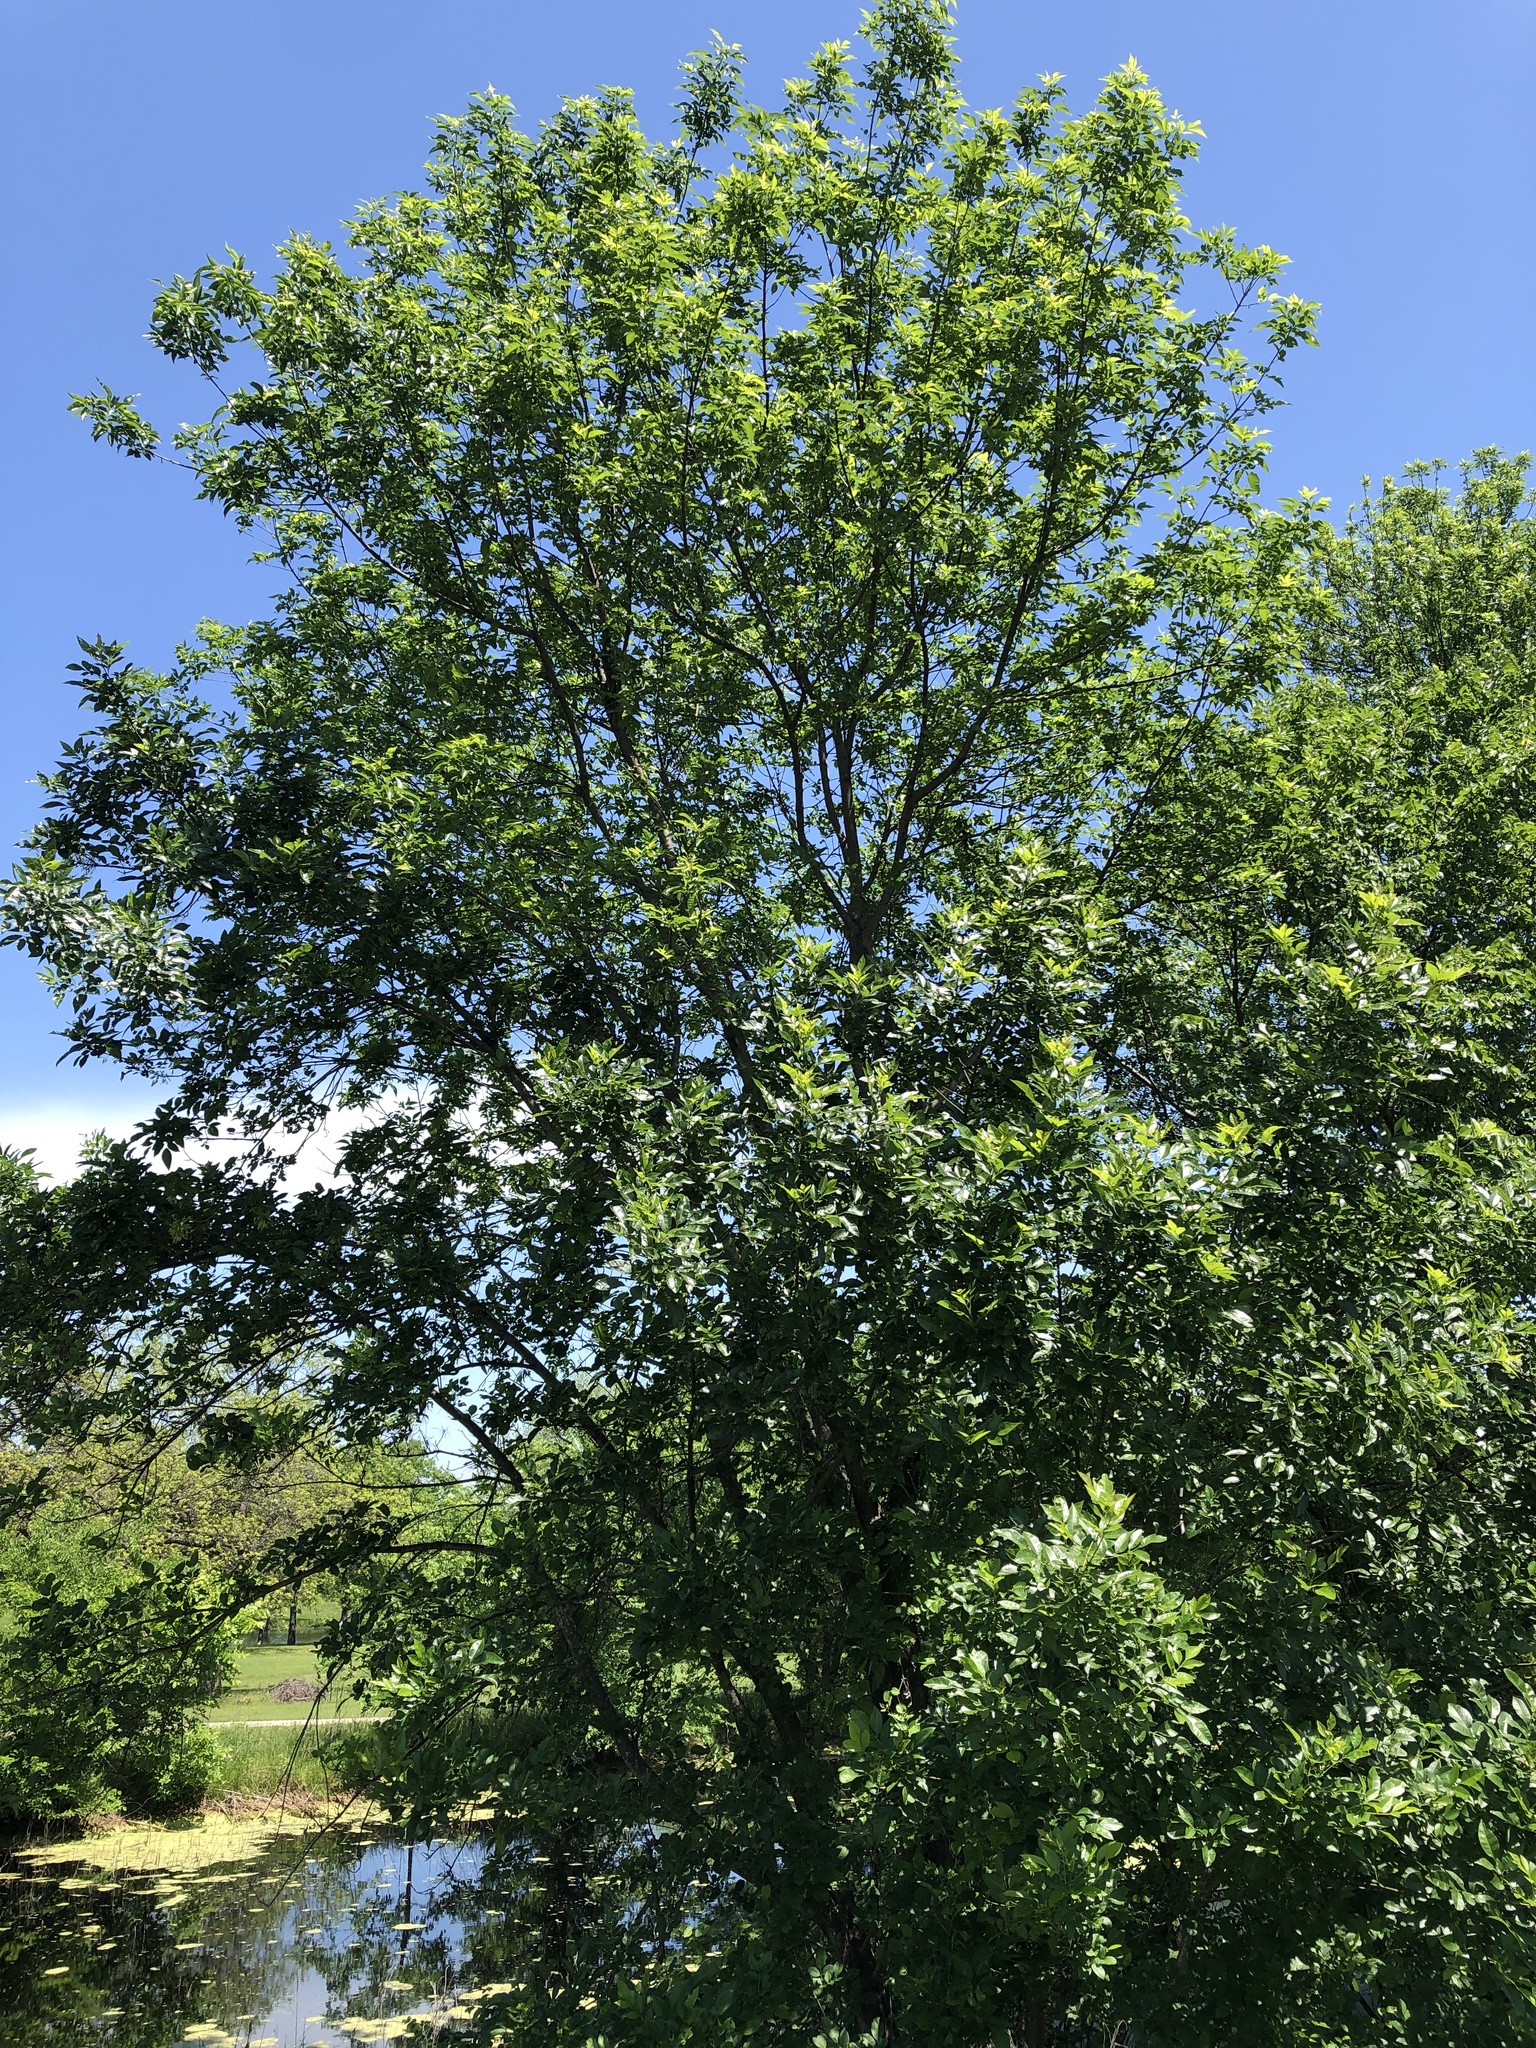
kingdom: Plantae
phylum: Tracheophyta
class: Magnoliopsida
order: Lamiales
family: Oleaceae
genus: Fraxinus
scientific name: Fraxinus pennsylvanica
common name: Green ash
